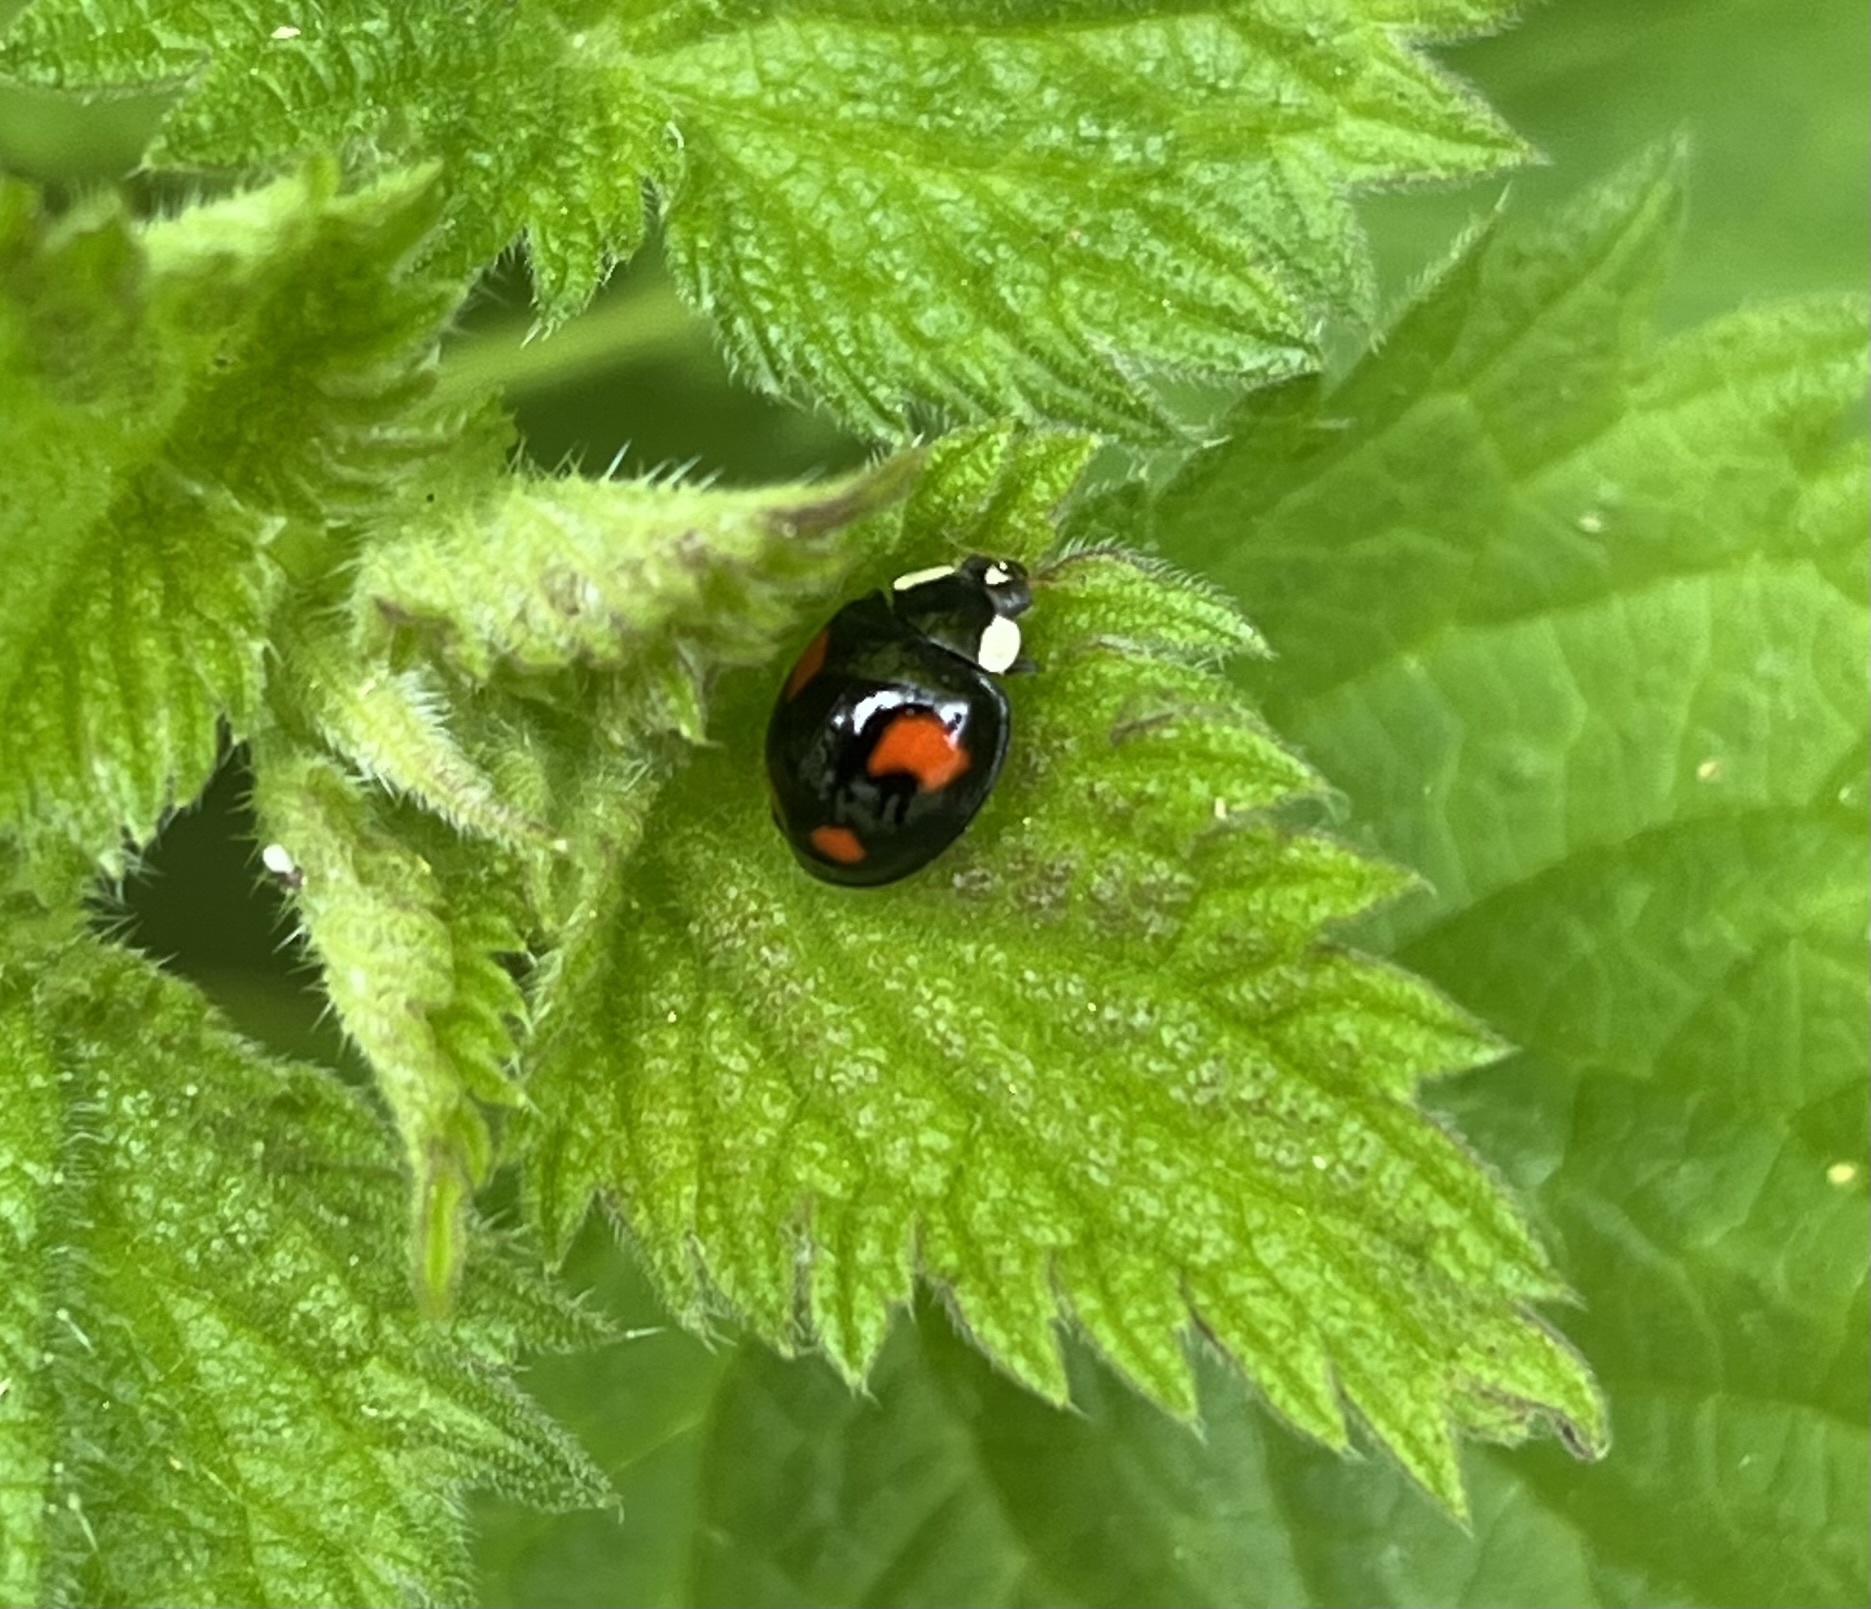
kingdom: Animalia
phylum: Arthropoda
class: Insecta
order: Coleoptera
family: Coccinellidae
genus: Harmonia
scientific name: Harmonia axyridis
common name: Harlequin ladybird
